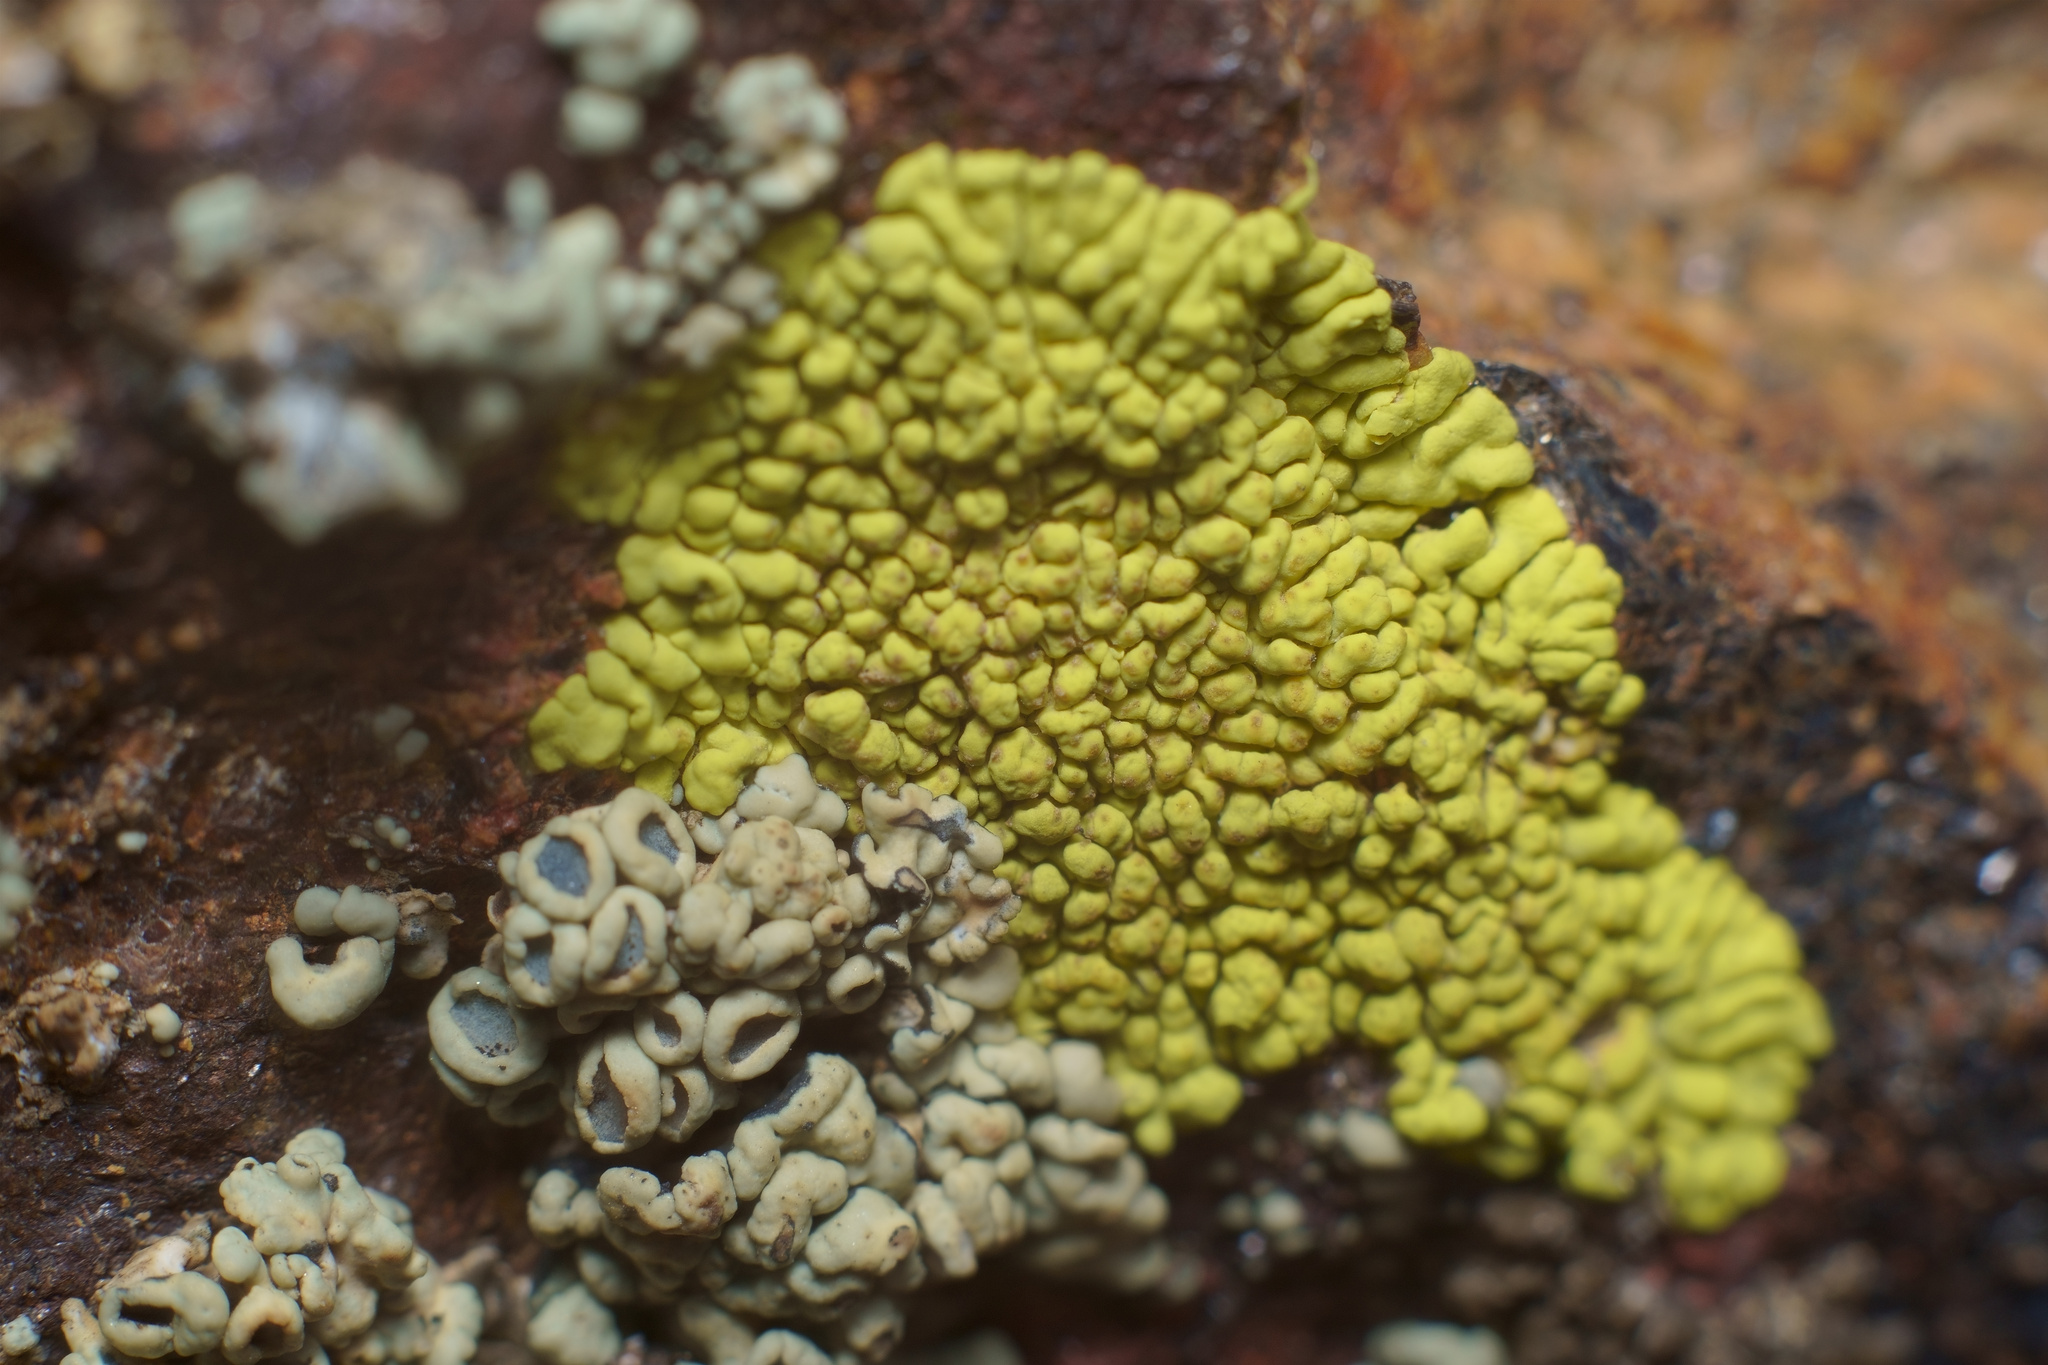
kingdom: Fungi
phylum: Ascomycota
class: Lecanoromycetes
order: Acarosporales
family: Acarosporaceae
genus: Pleopsidium
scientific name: Pleopsidium oxytonum
